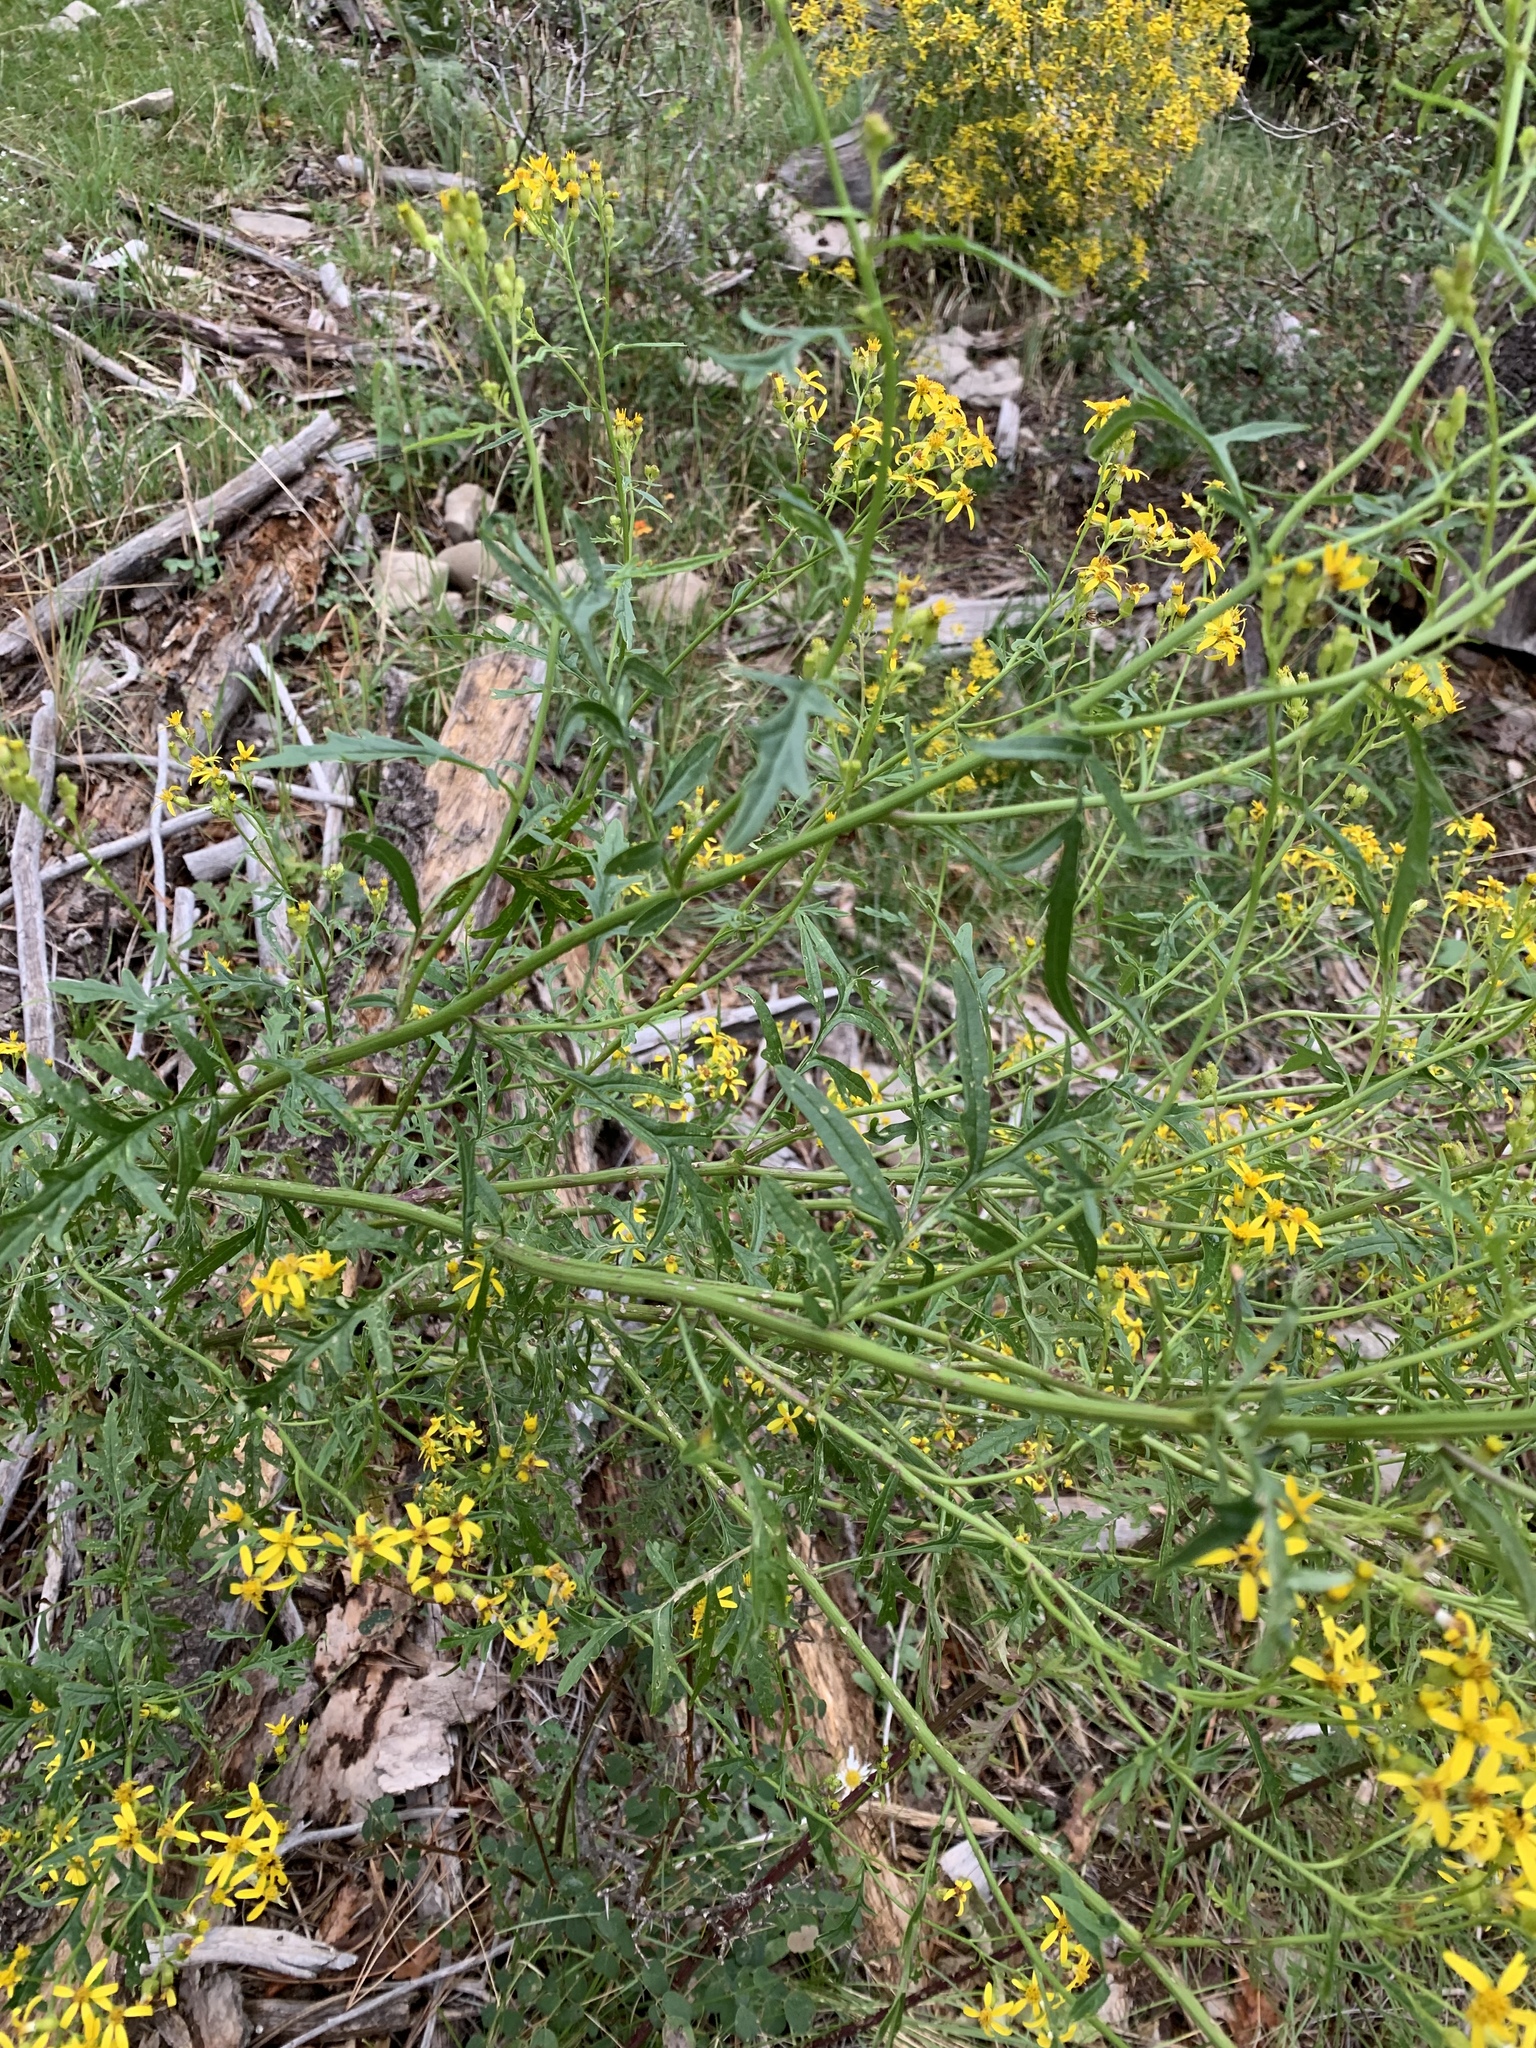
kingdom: Plantae
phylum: Tracheophyta
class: Magnoliopsida
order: Asterales
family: Asteraceae
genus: Senecio
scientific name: Senecio eremophilus
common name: Desert ragwort
